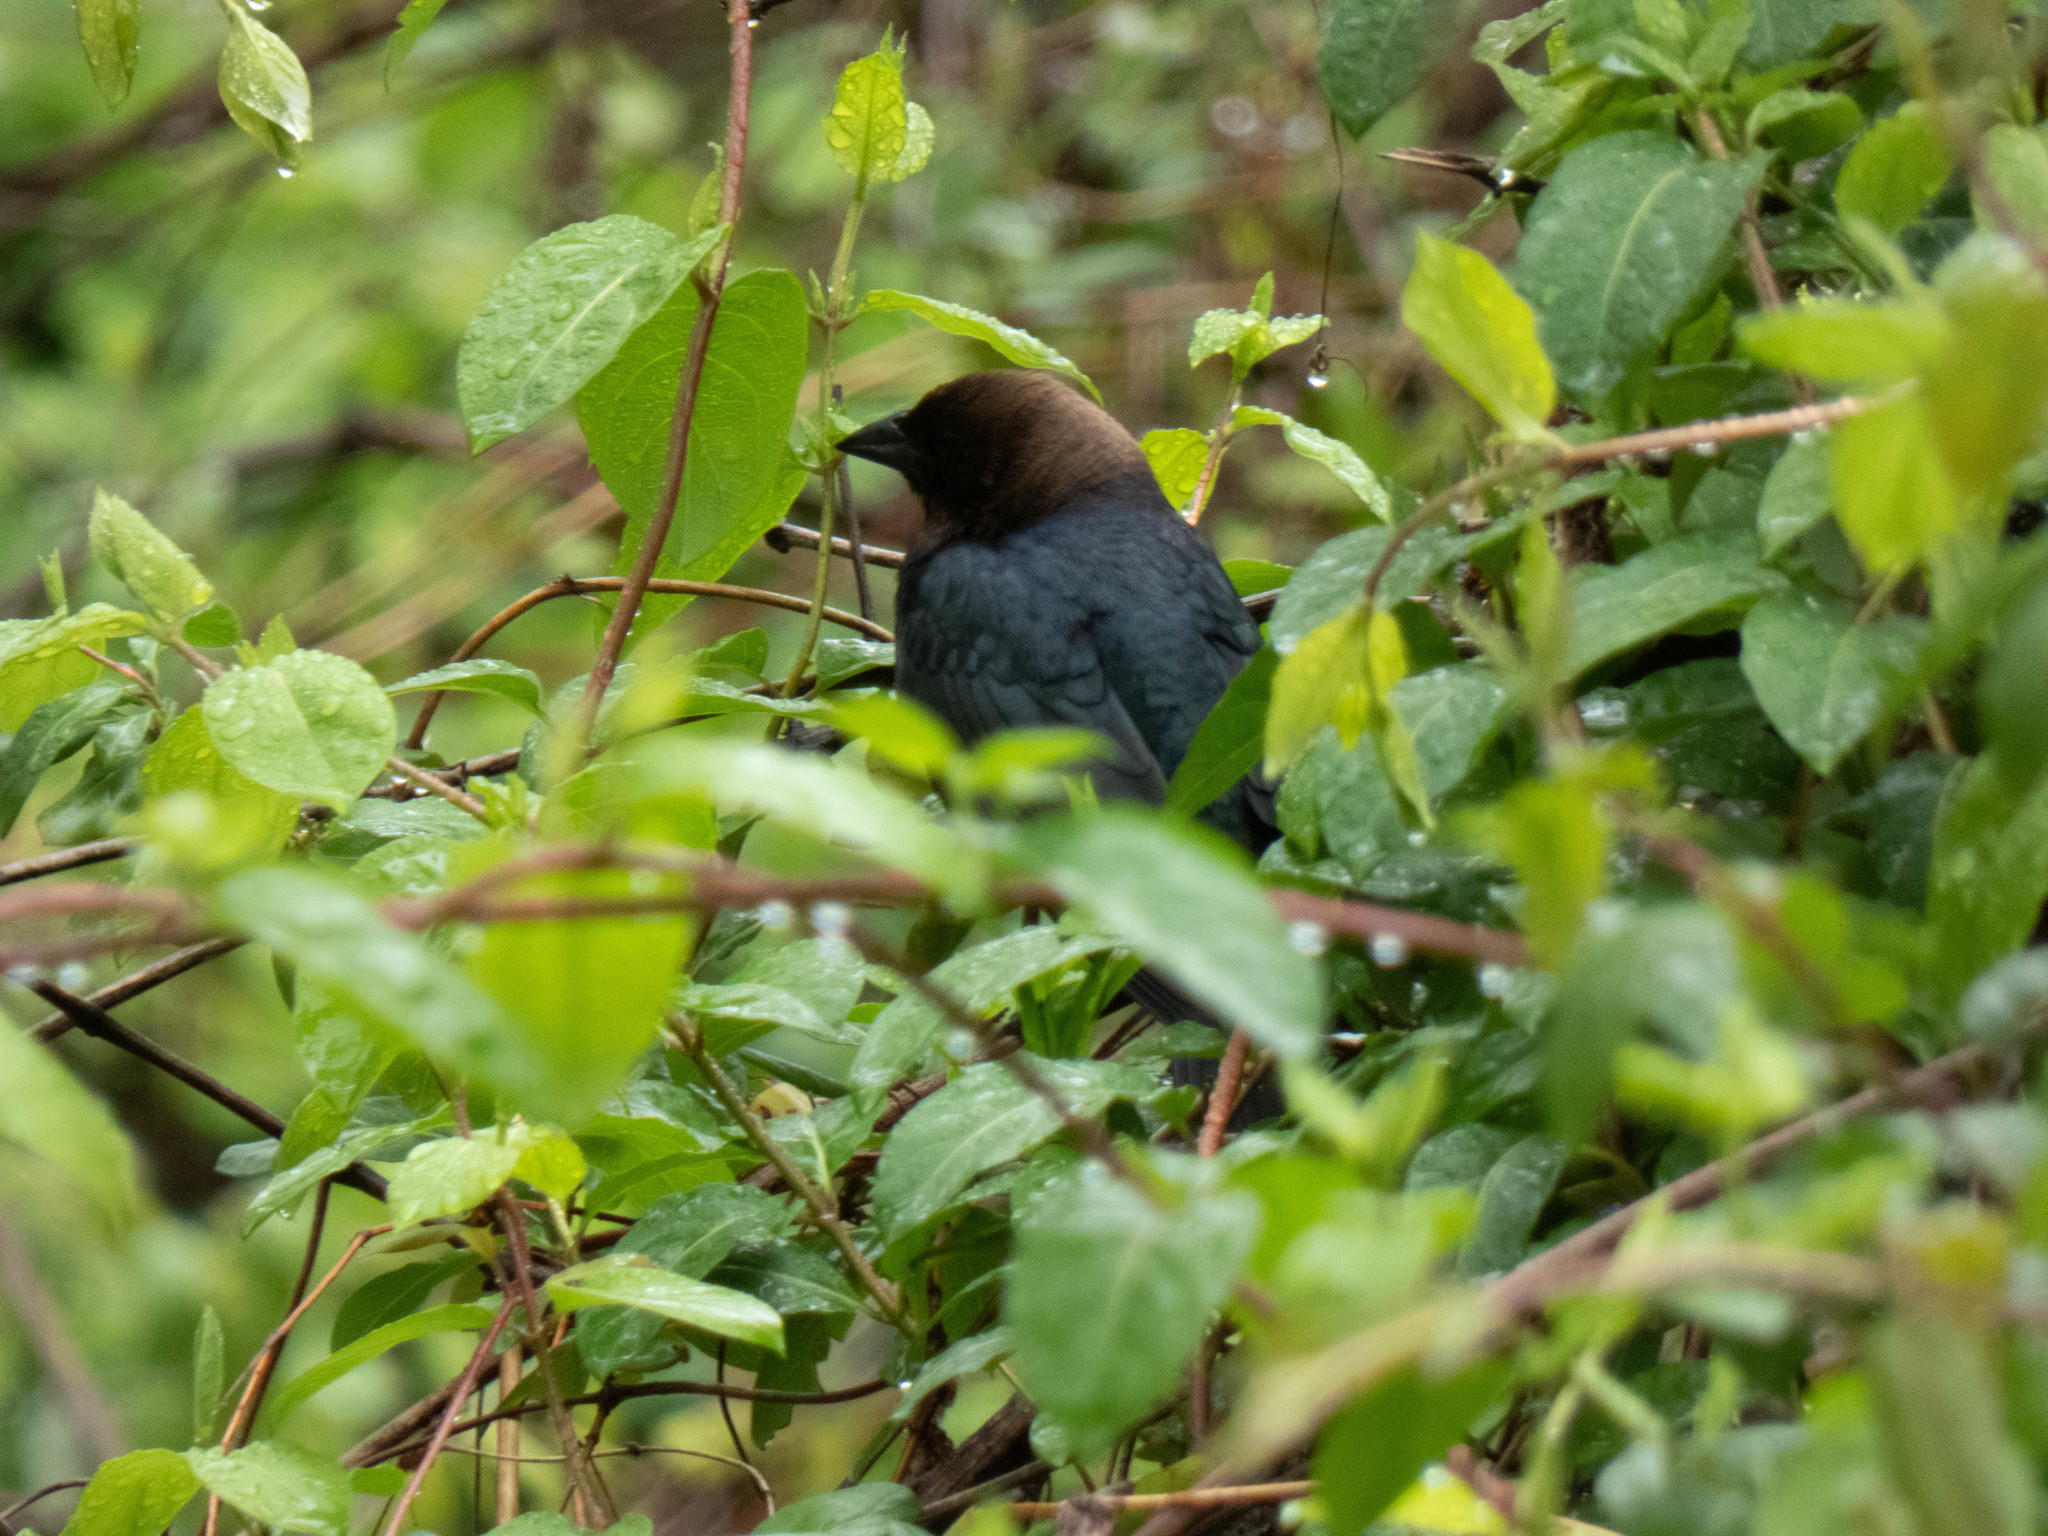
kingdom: Animalia
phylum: Chordata
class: Aves
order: Passeriformes
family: Icteridae
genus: Molothrus
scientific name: Molothrus ater
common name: Brown-headed cowbird
